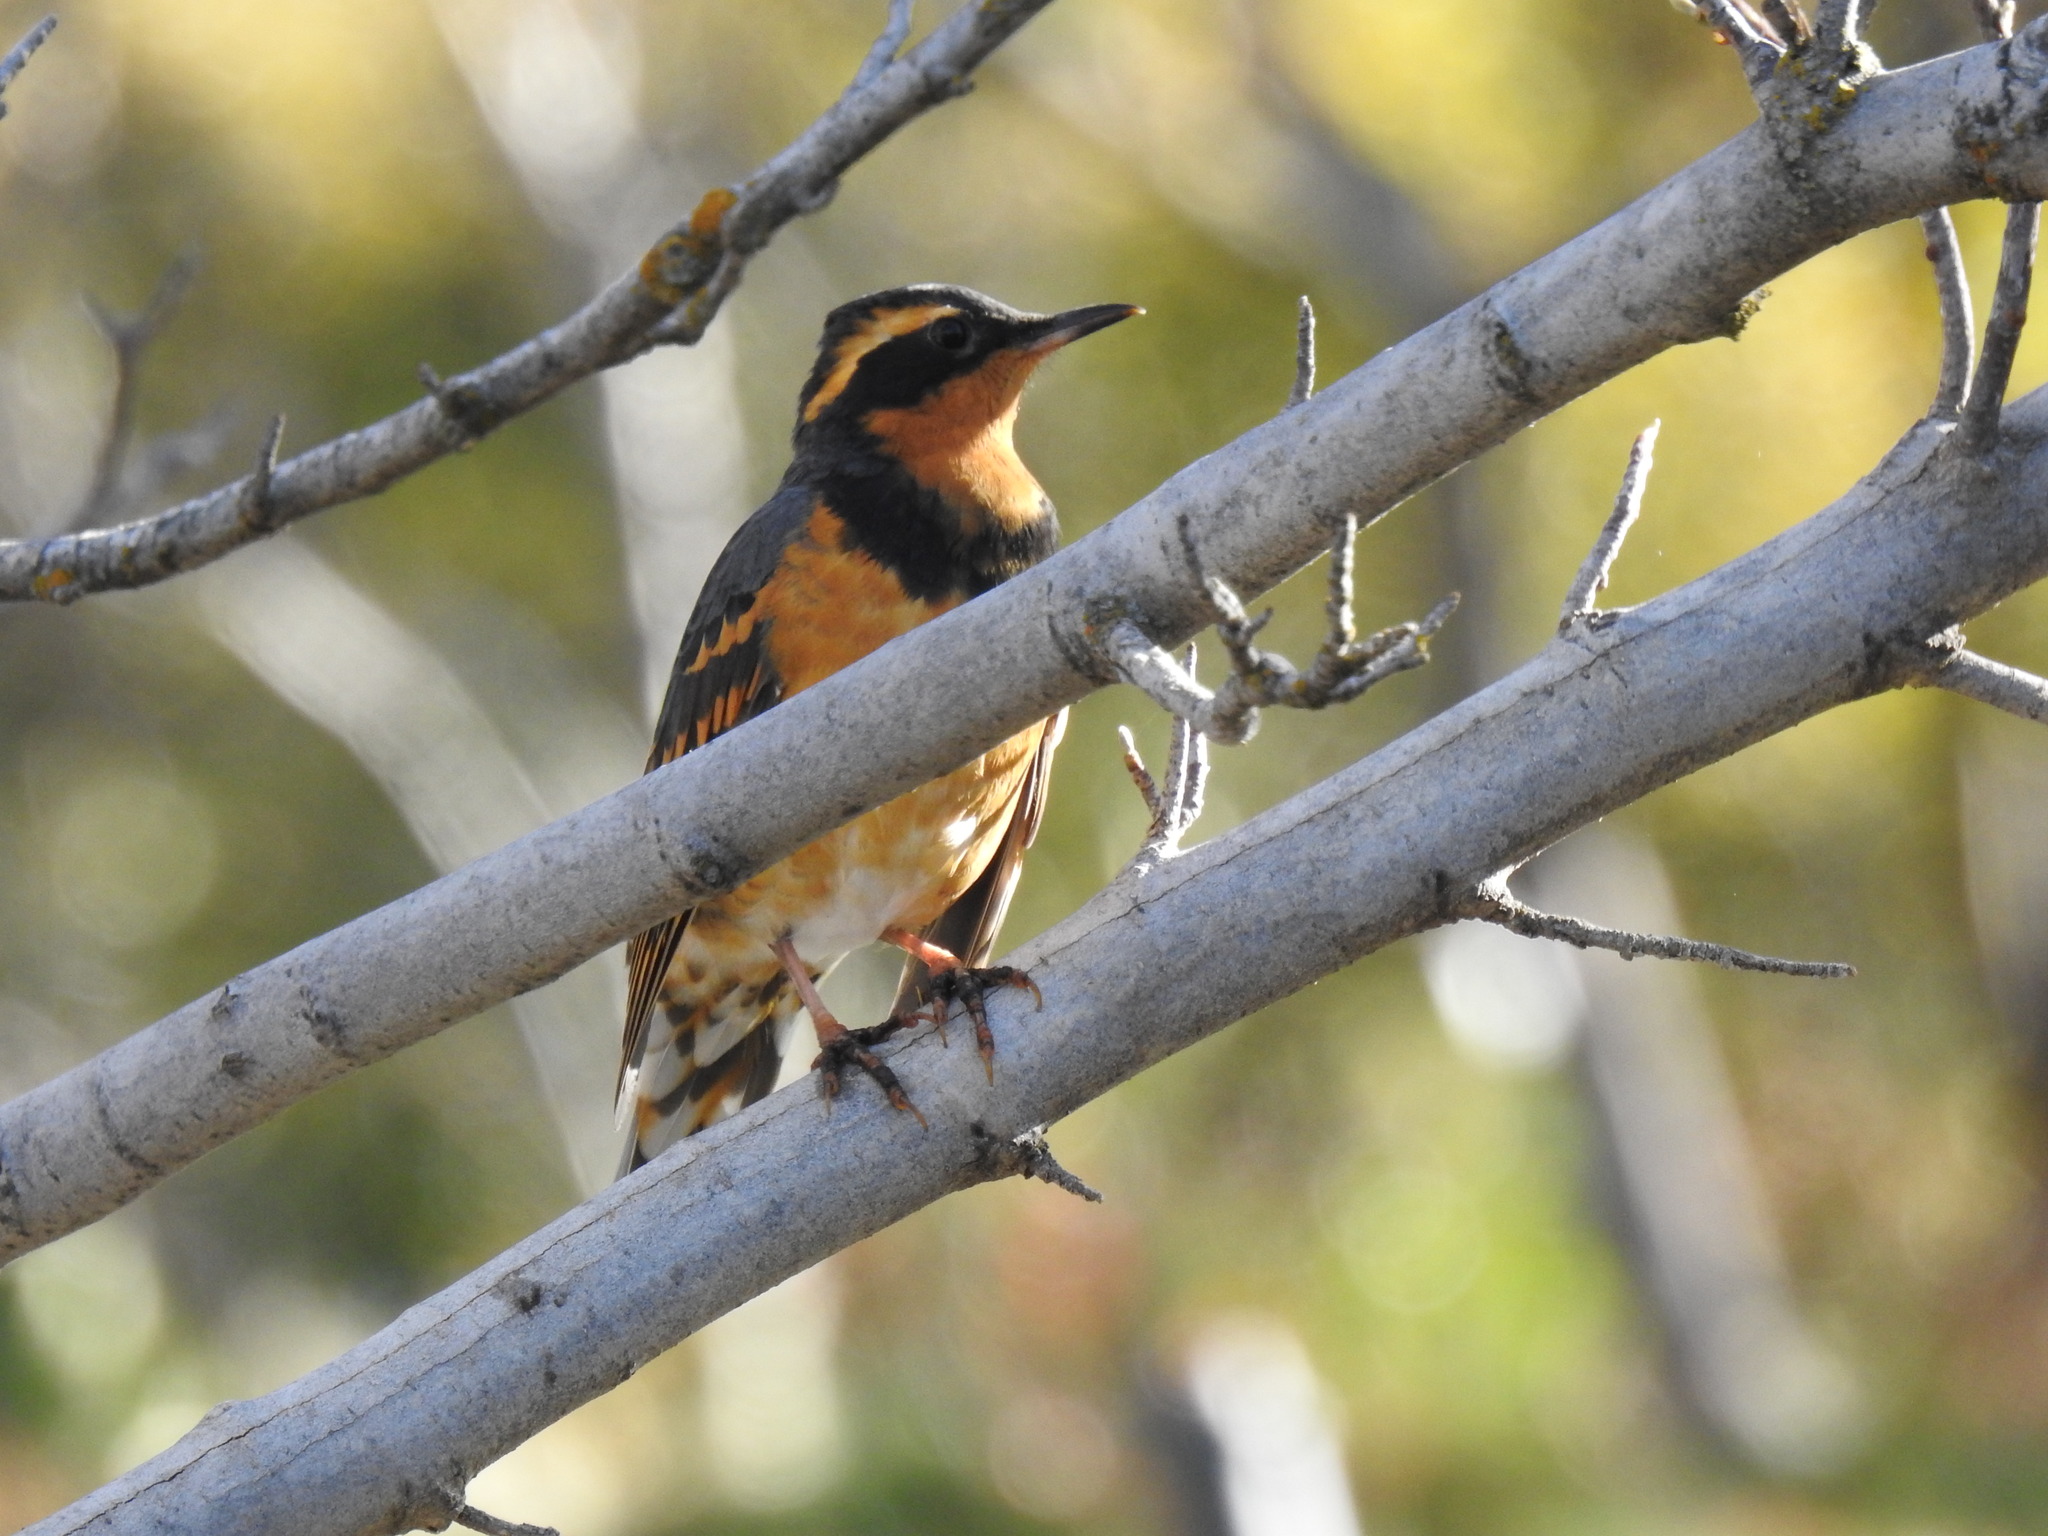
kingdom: Animalia
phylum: Chordata
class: Aves
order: Passeriformes
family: Turdidae
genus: Ixoreus
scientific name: Ixoreus naevius
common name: Varied thrush
